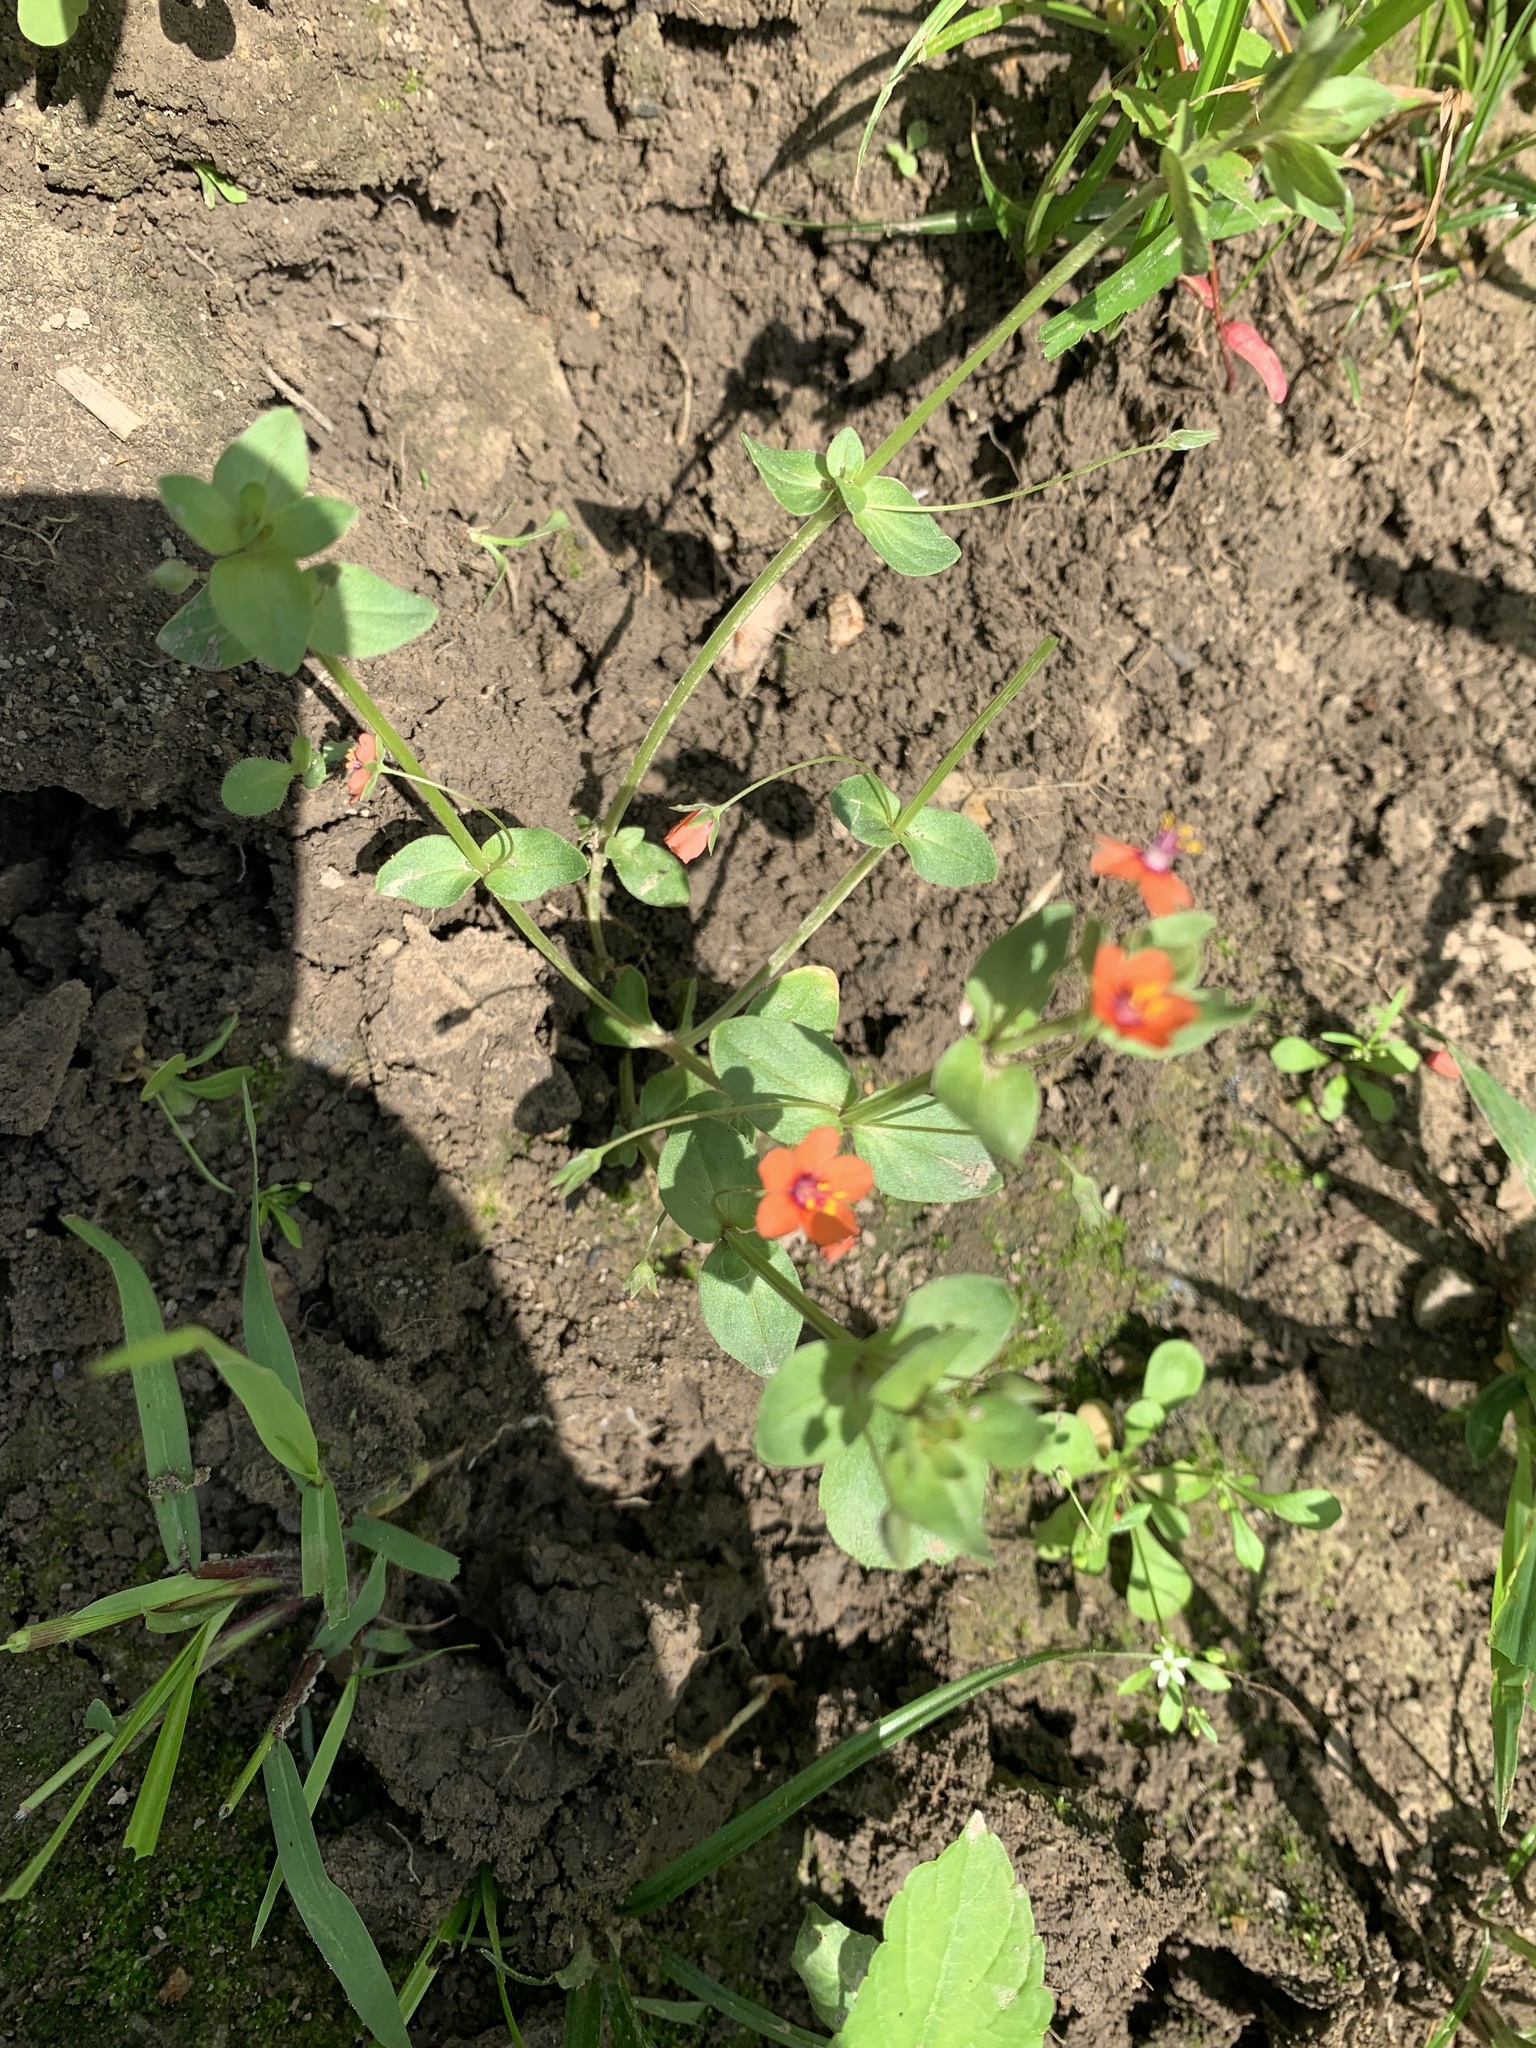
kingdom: Plantae
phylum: Tracheophyta
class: Magnoliopsida
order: Ericales
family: Primulaceae
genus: Lysimachia
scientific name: Lysimachia arvensis
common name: Scarlet pimpernel
